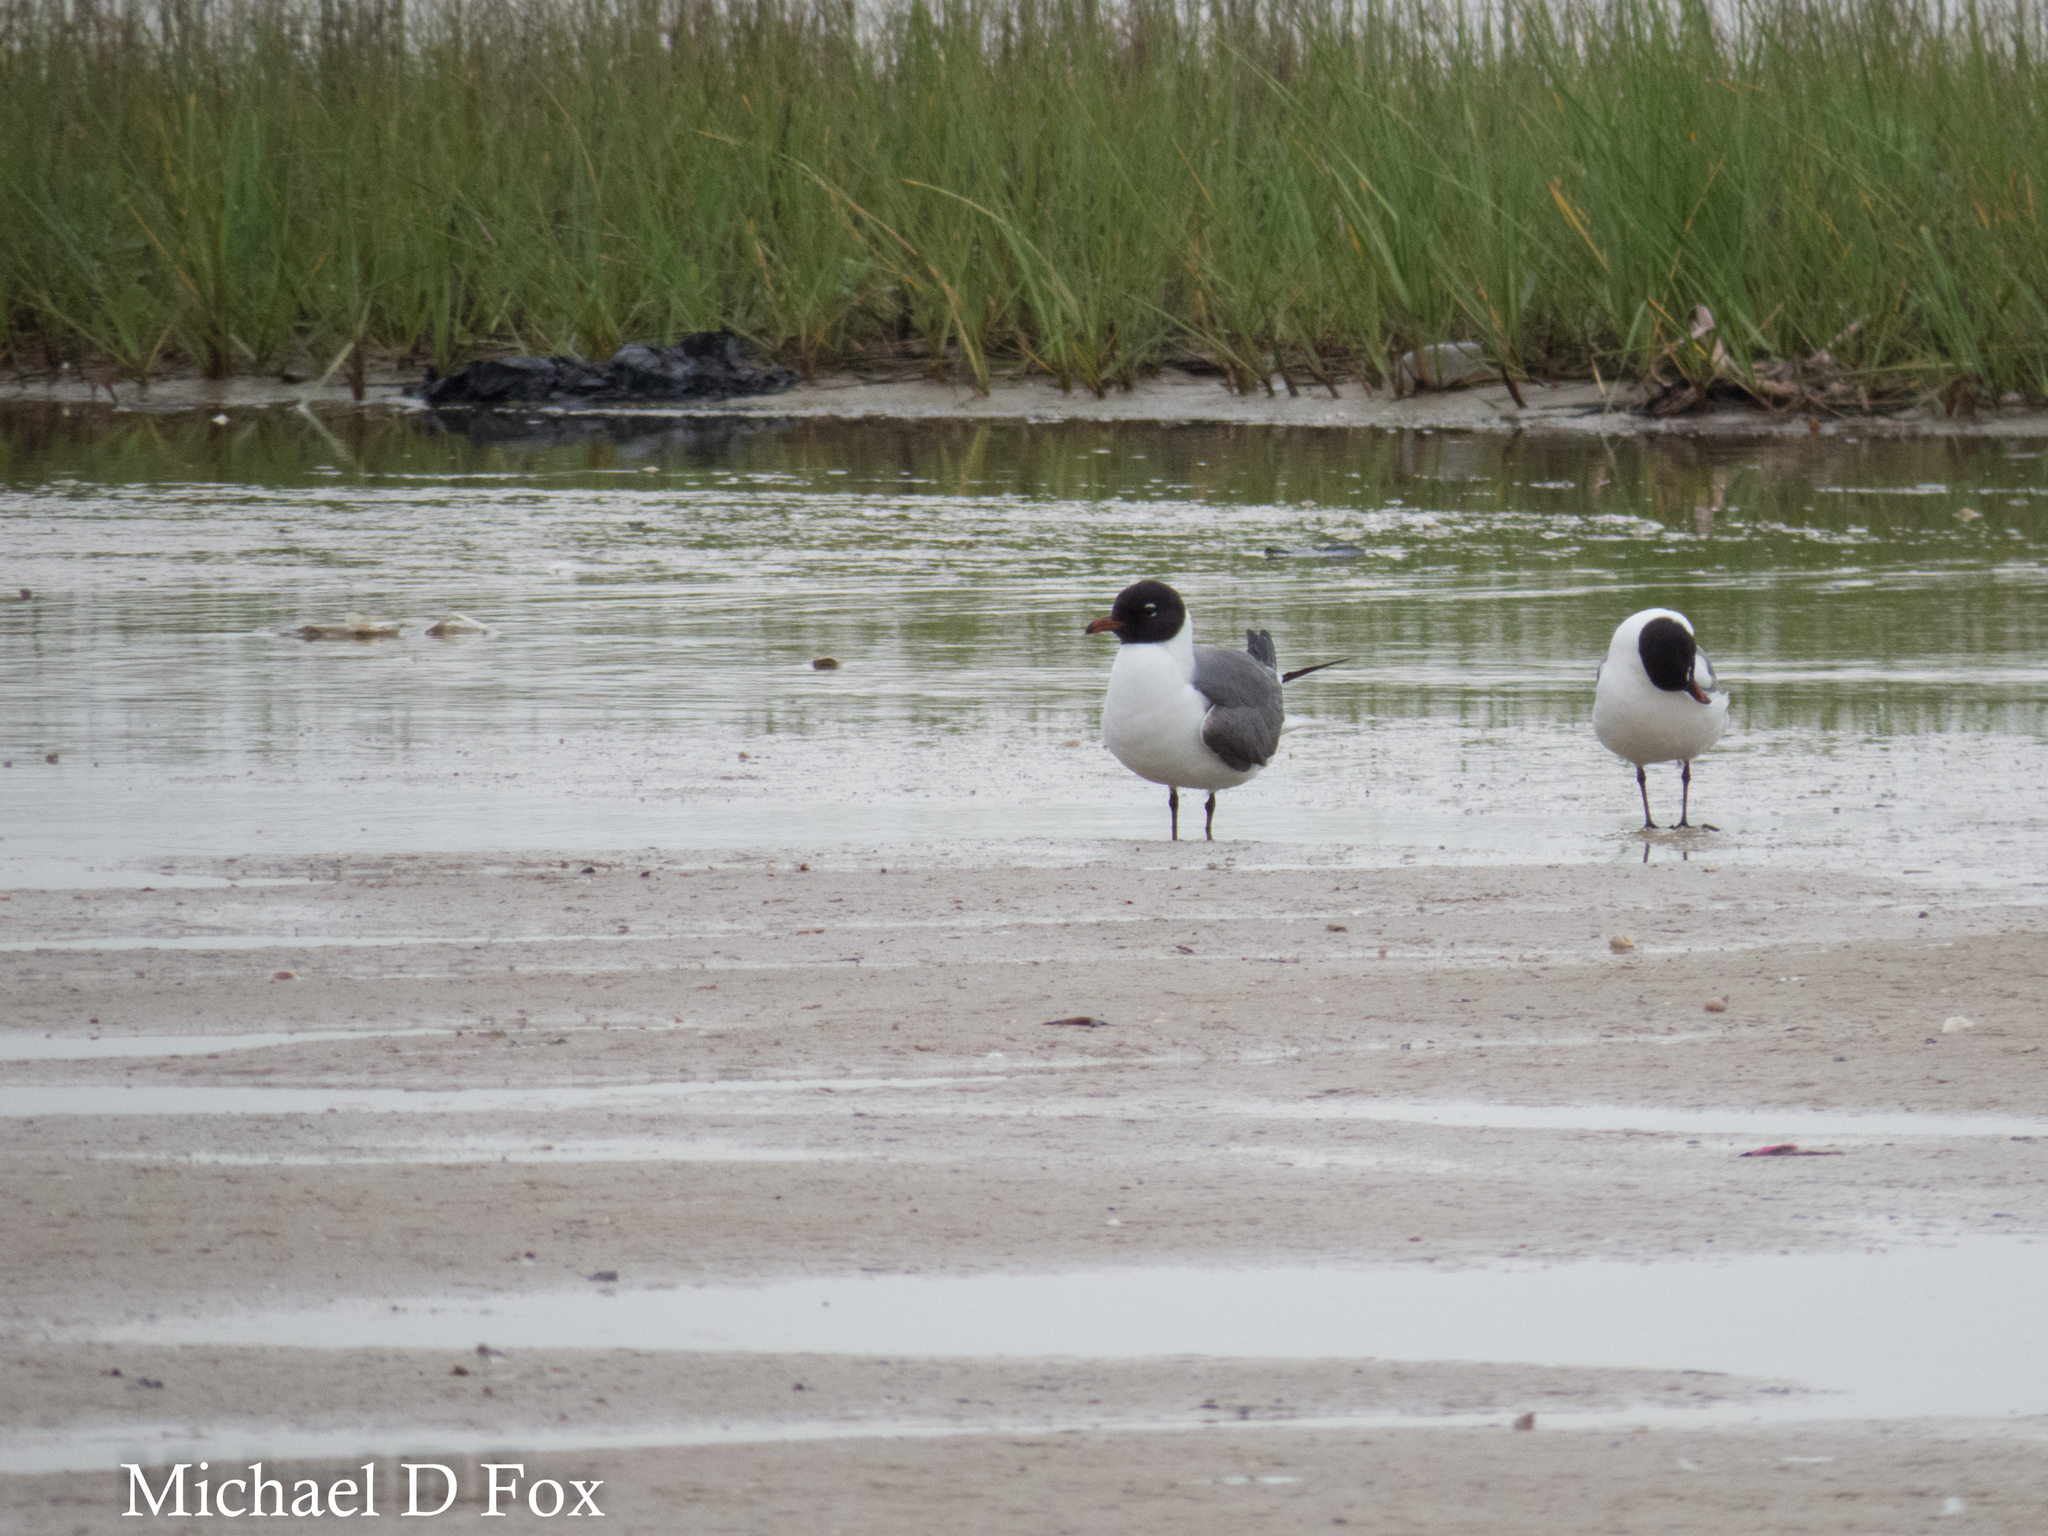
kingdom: Animalia
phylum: Chordata
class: Aves
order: Charadriiformes
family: Laridae
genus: Leucophaeus
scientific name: Leucophaeus atricilla
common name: Laughing gull
